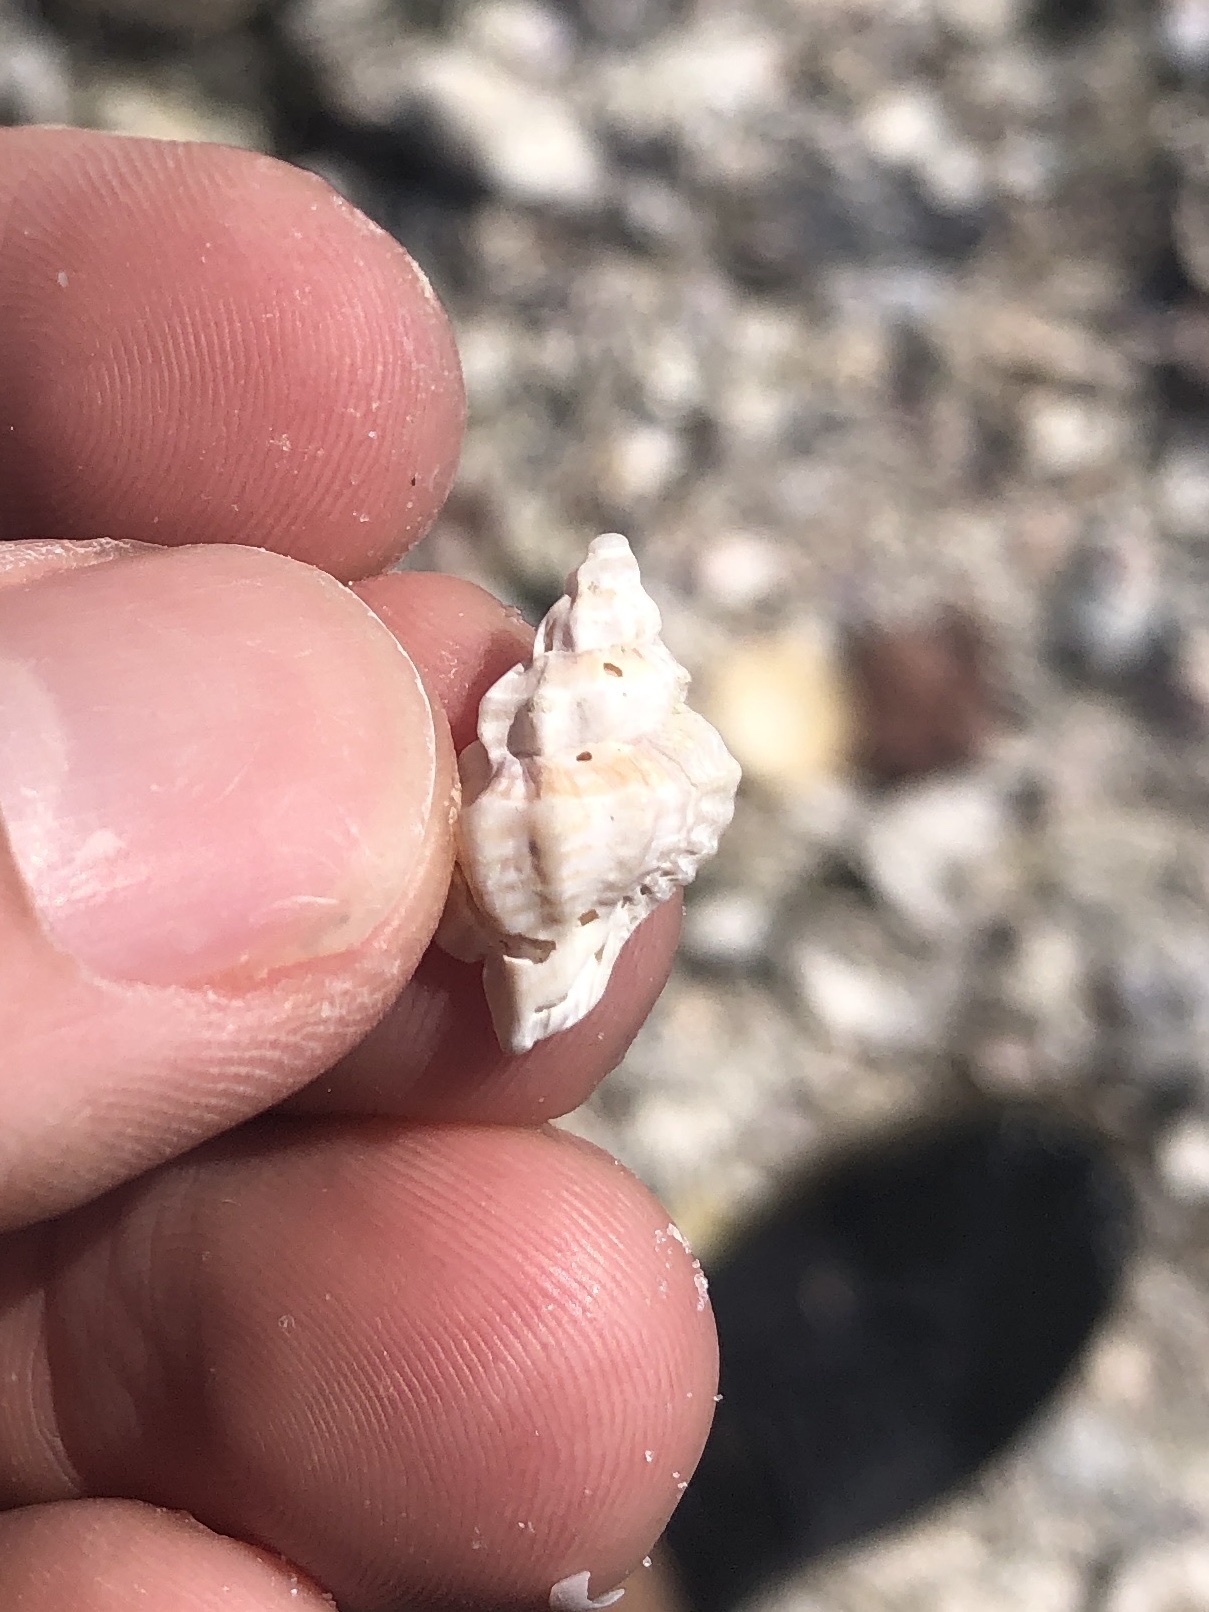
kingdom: Animalia
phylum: Mollusca
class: Gastropoda
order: Neogastropoda
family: Muricidae
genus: Eupleura
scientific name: Eupleura sulcidentata
